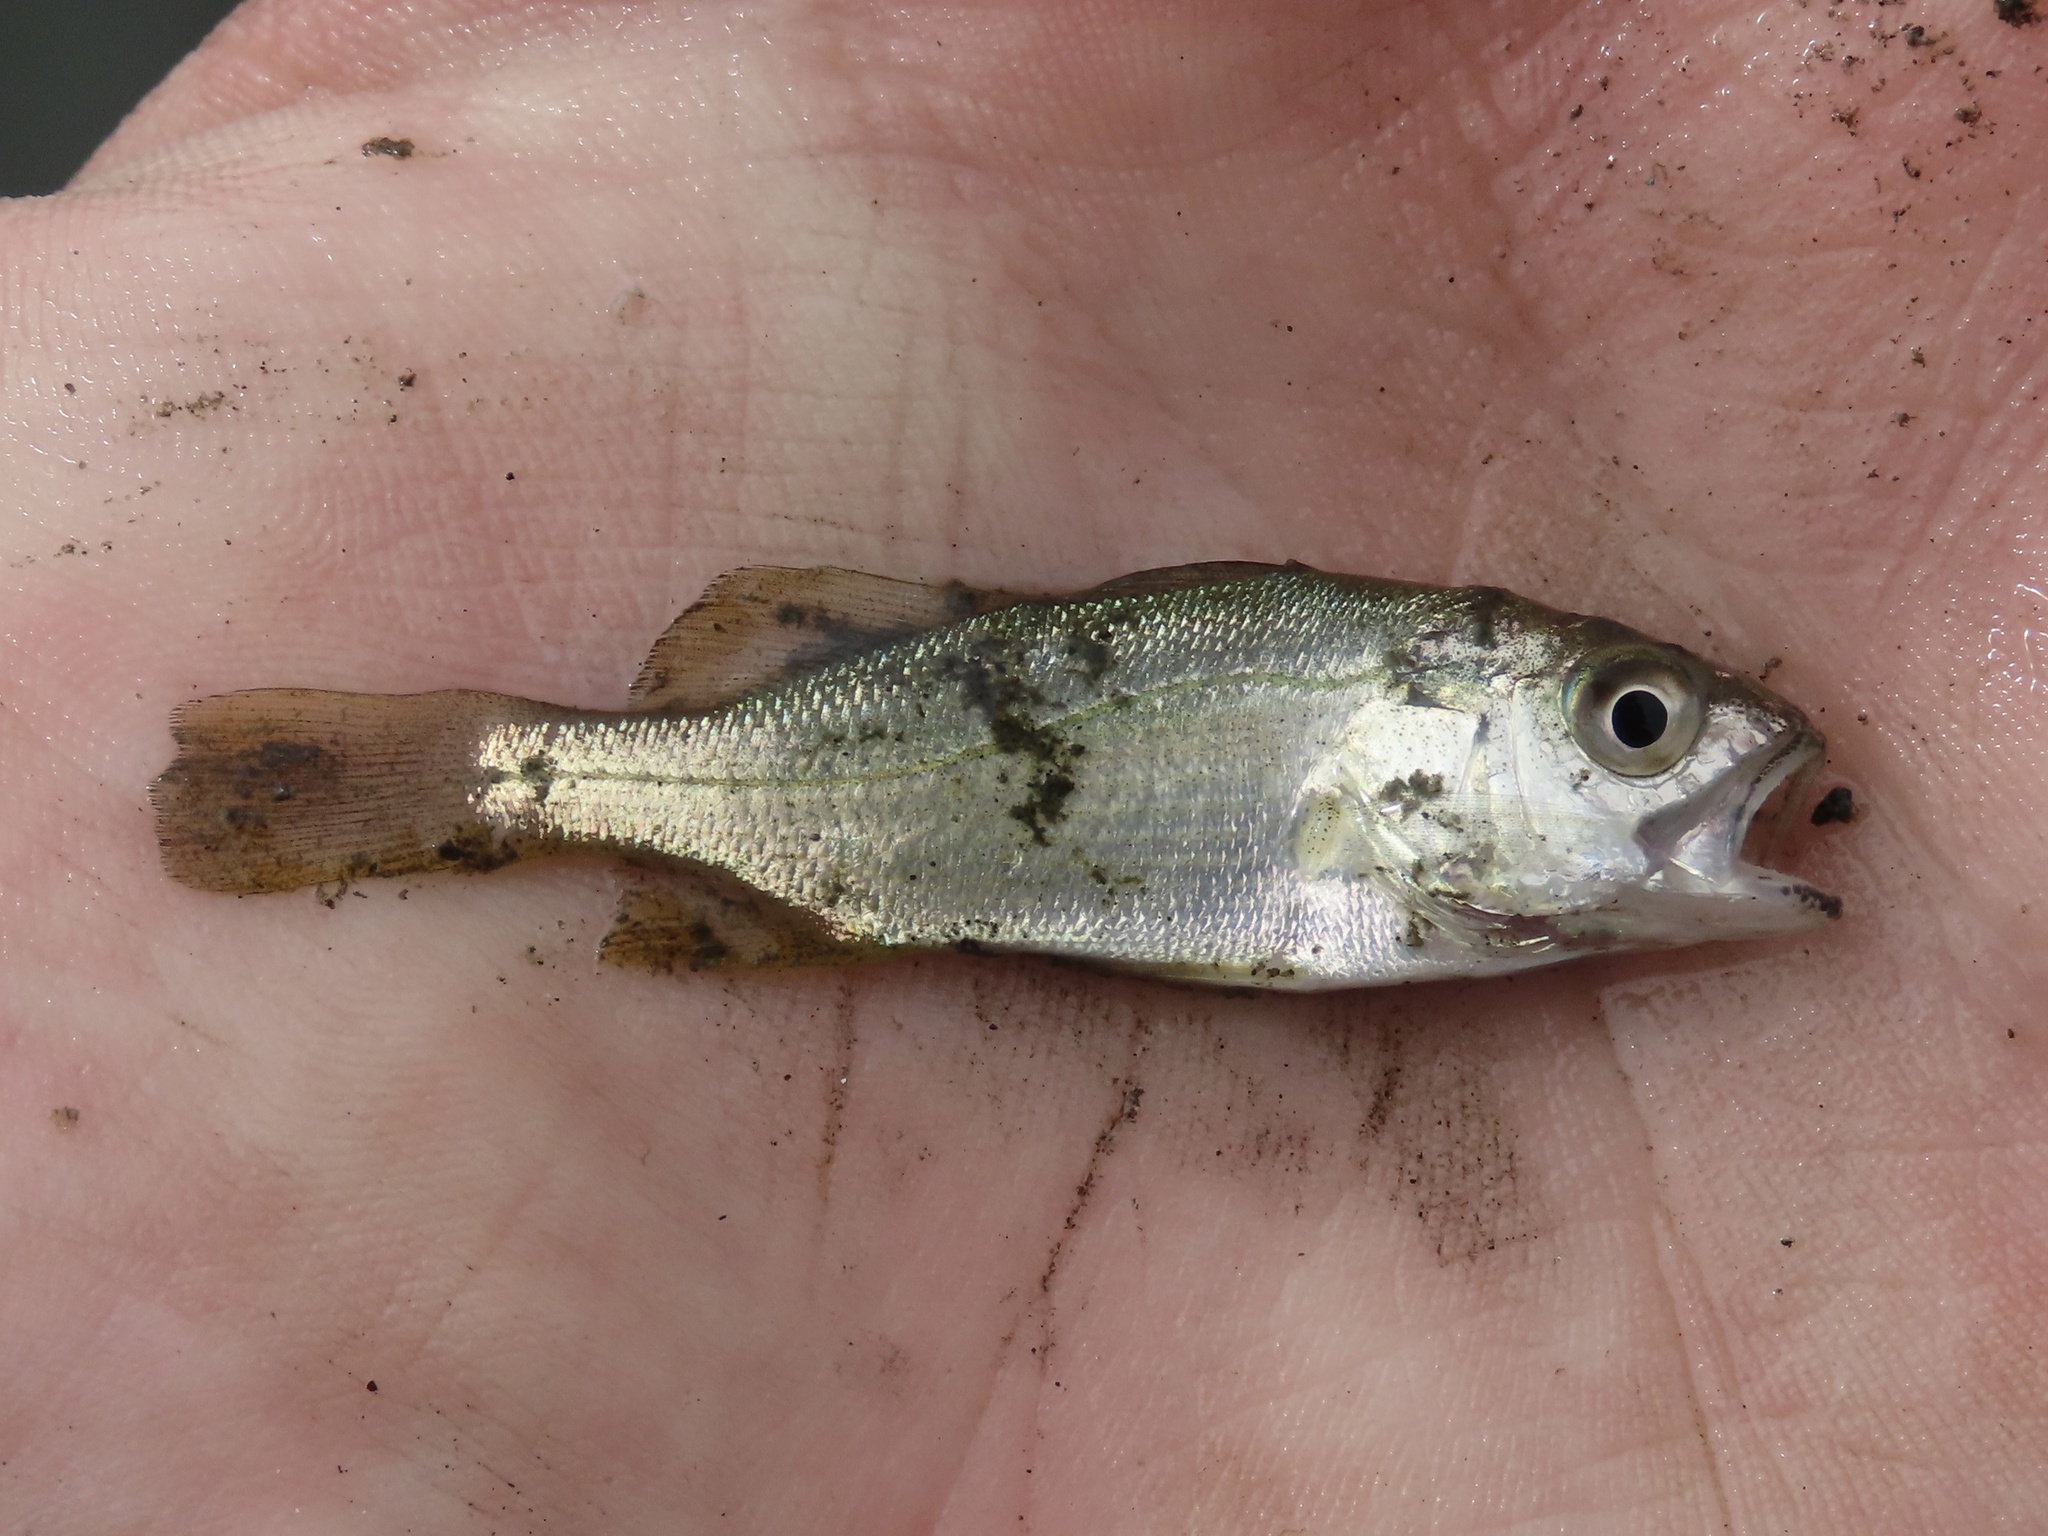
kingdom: Animalia
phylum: Chordata
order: Perciformes
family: Sciaenidae
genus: Bairdiella
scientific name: Bairdiella chrysoura
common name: Silver perch
